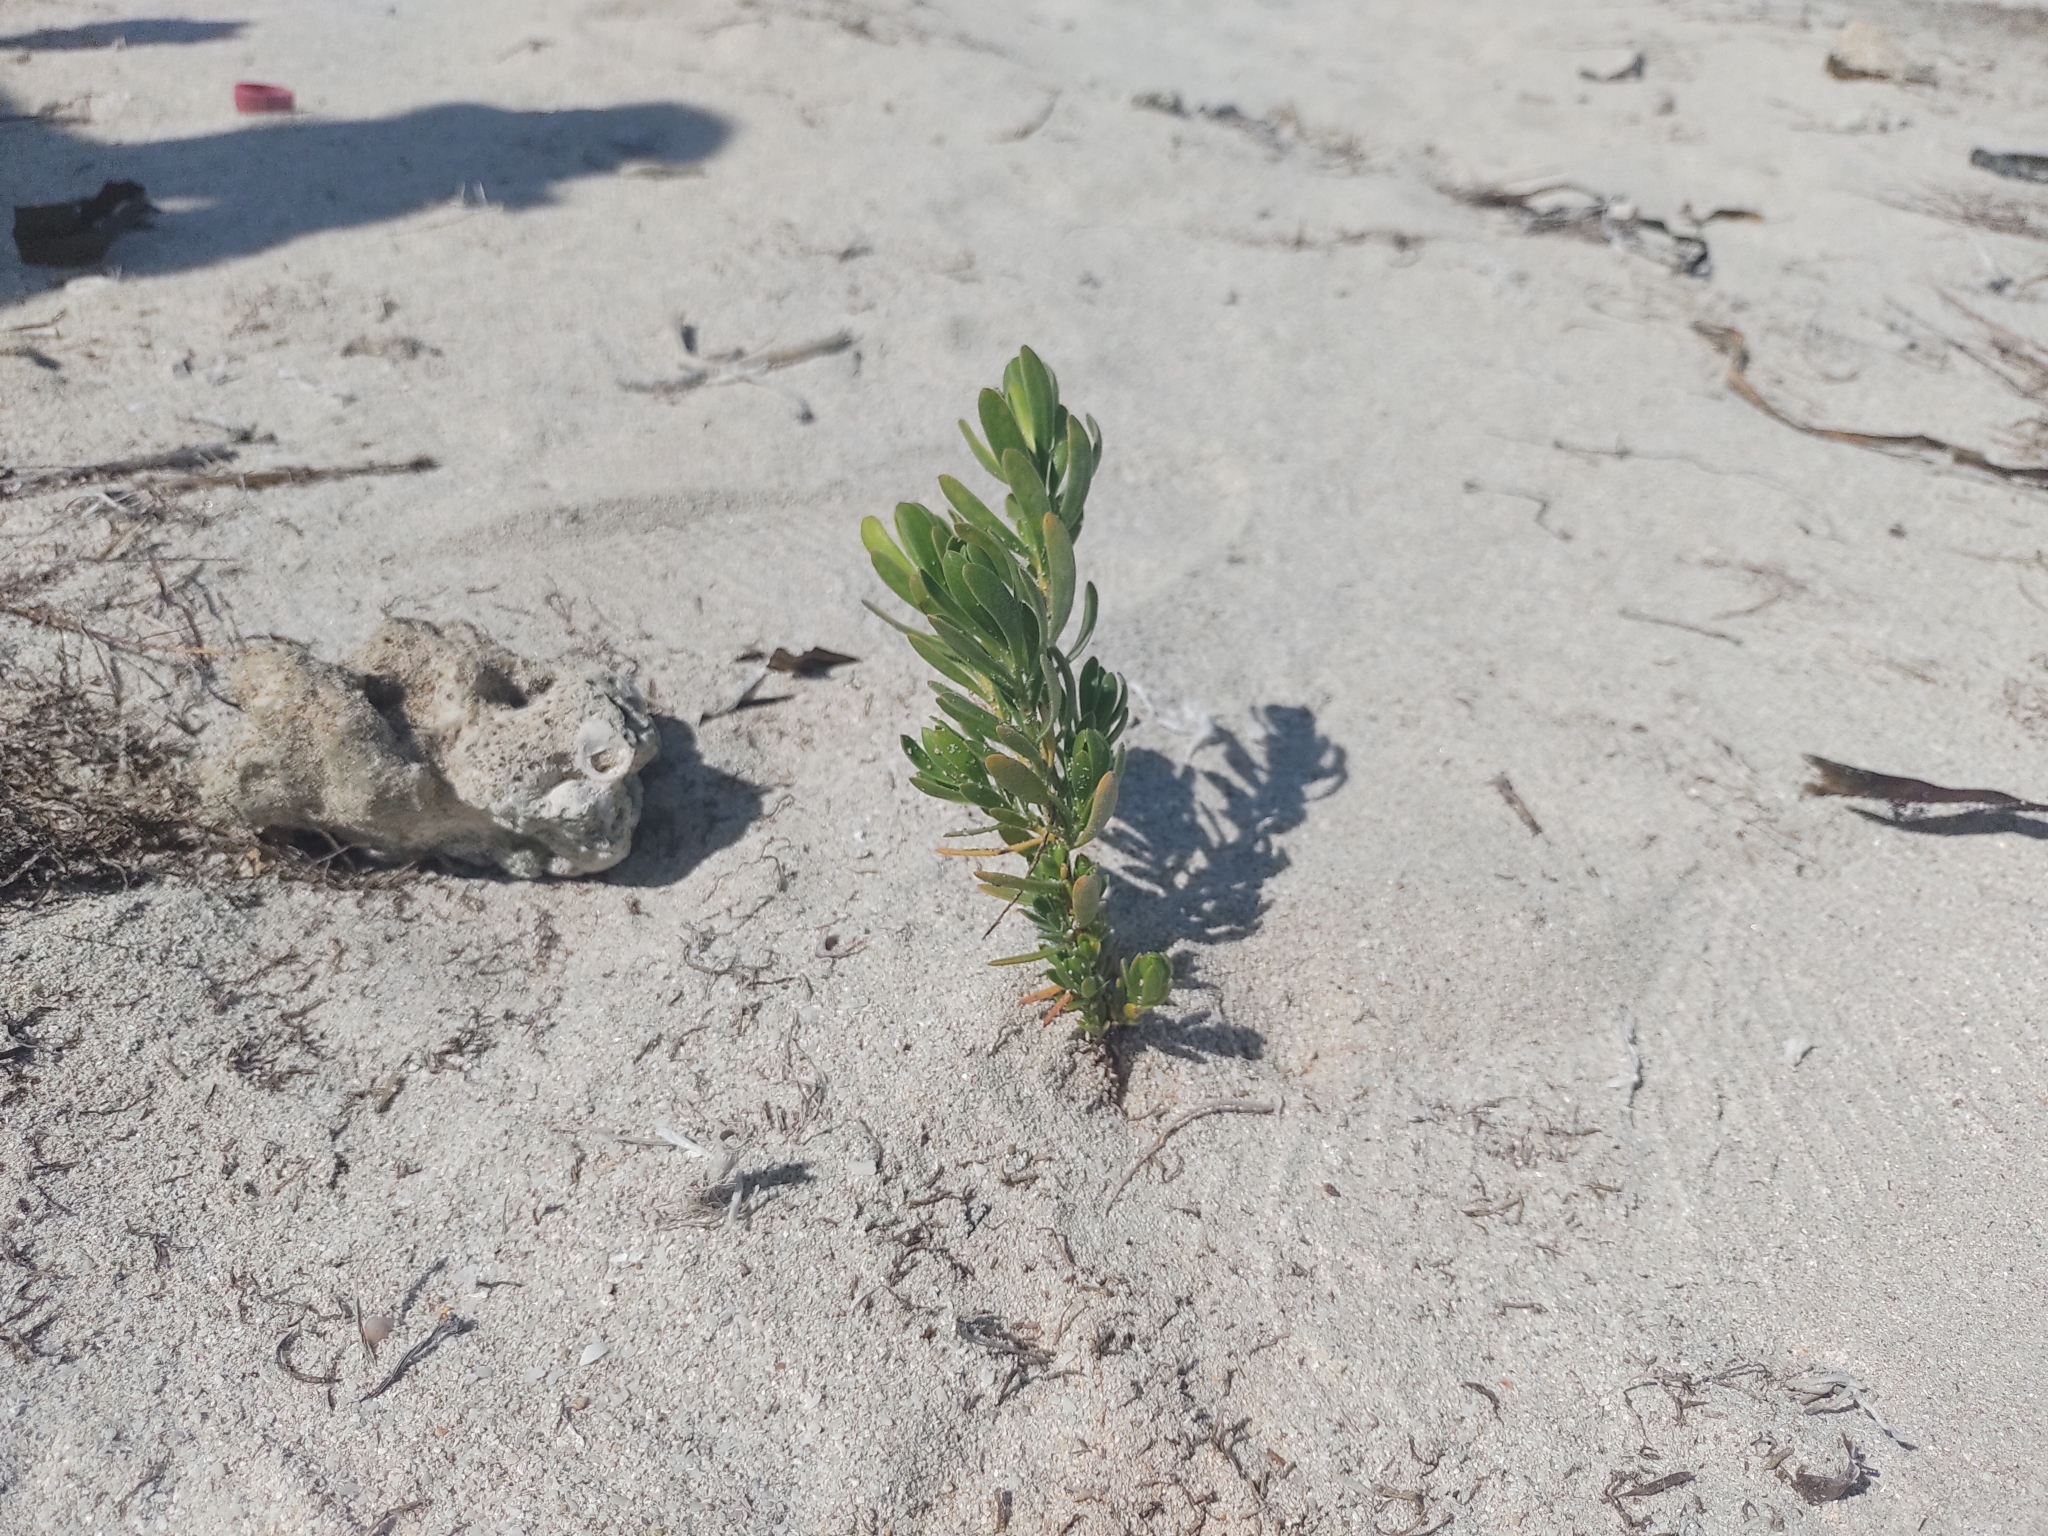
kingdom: Plantae
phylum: Tracheophyta
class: Magnoliopsida
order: Fabales
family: Surianaceae
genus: Suriana
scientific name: Suriana maritima
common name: Bay-cedar
